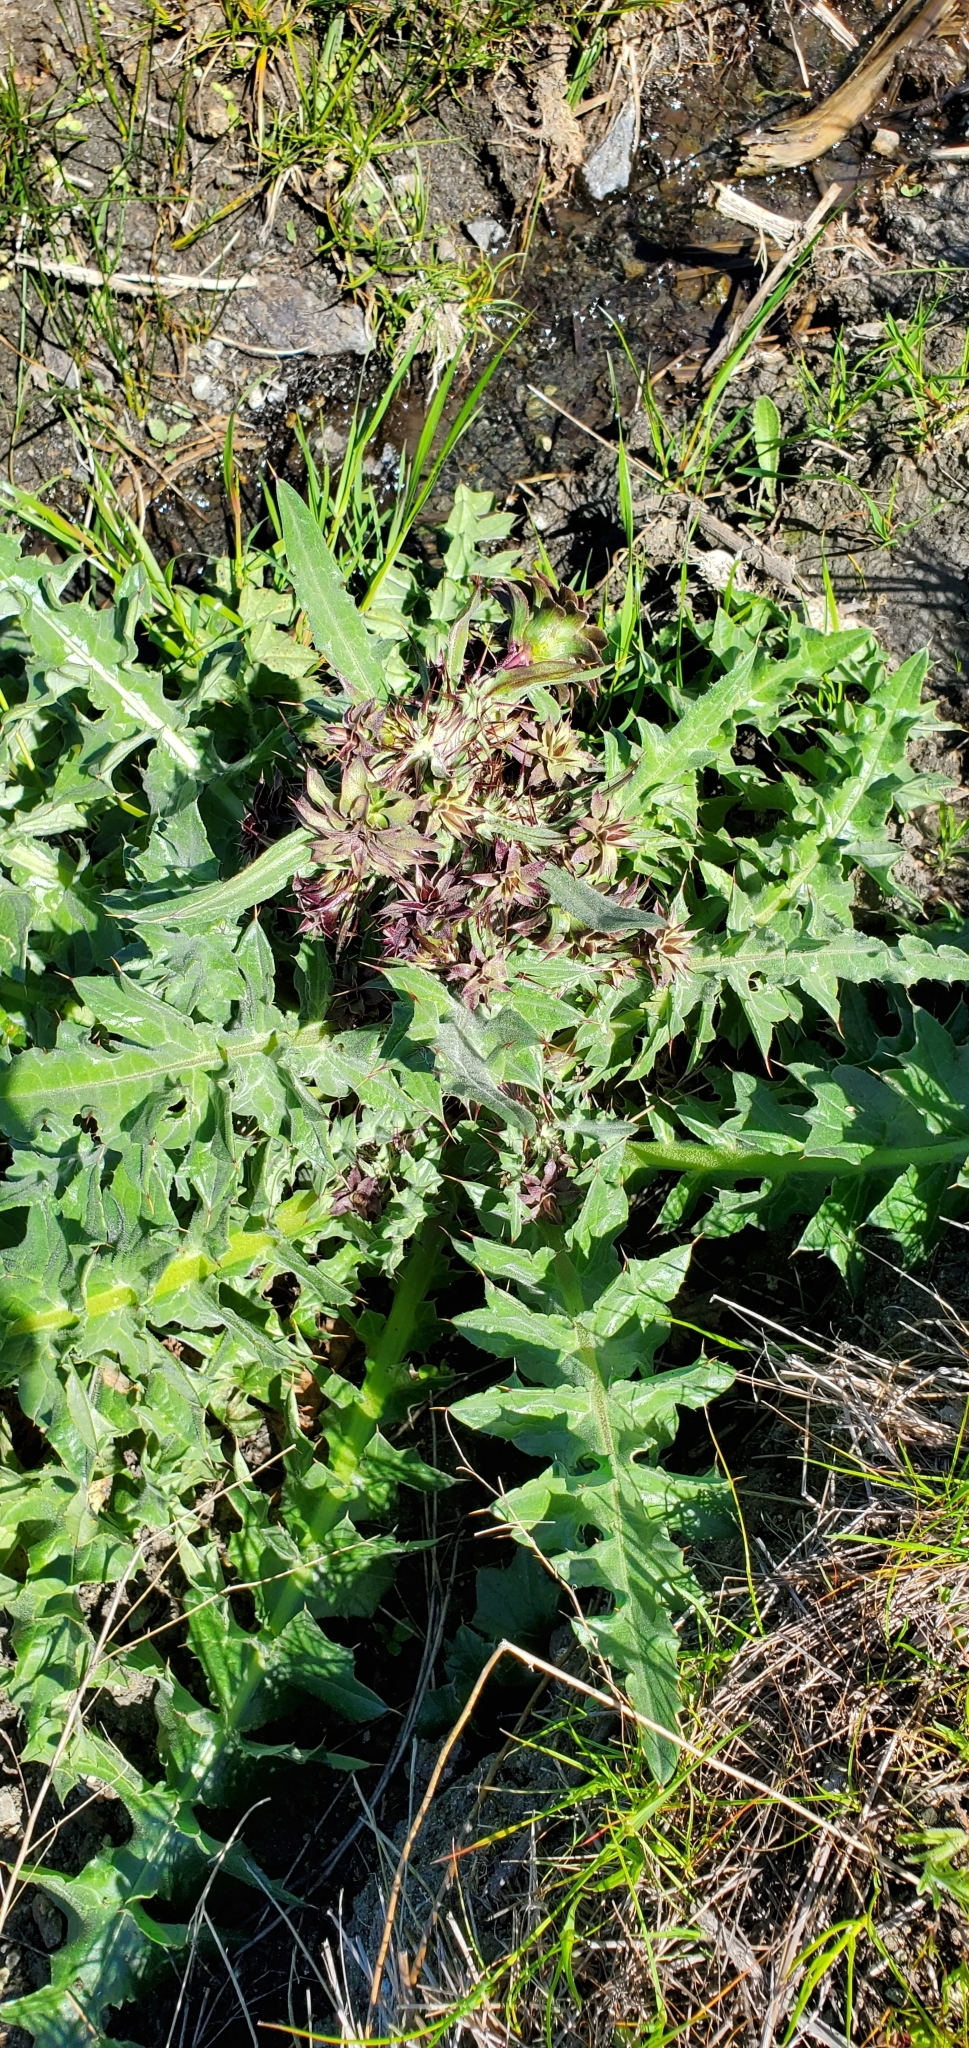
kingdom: Plantae
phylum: Tracheophyta
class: Magnoliopsida
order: Asterales
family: Asteraceae
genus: Cirsium
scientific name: Cirsium fontinale
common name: Fountain thistle
